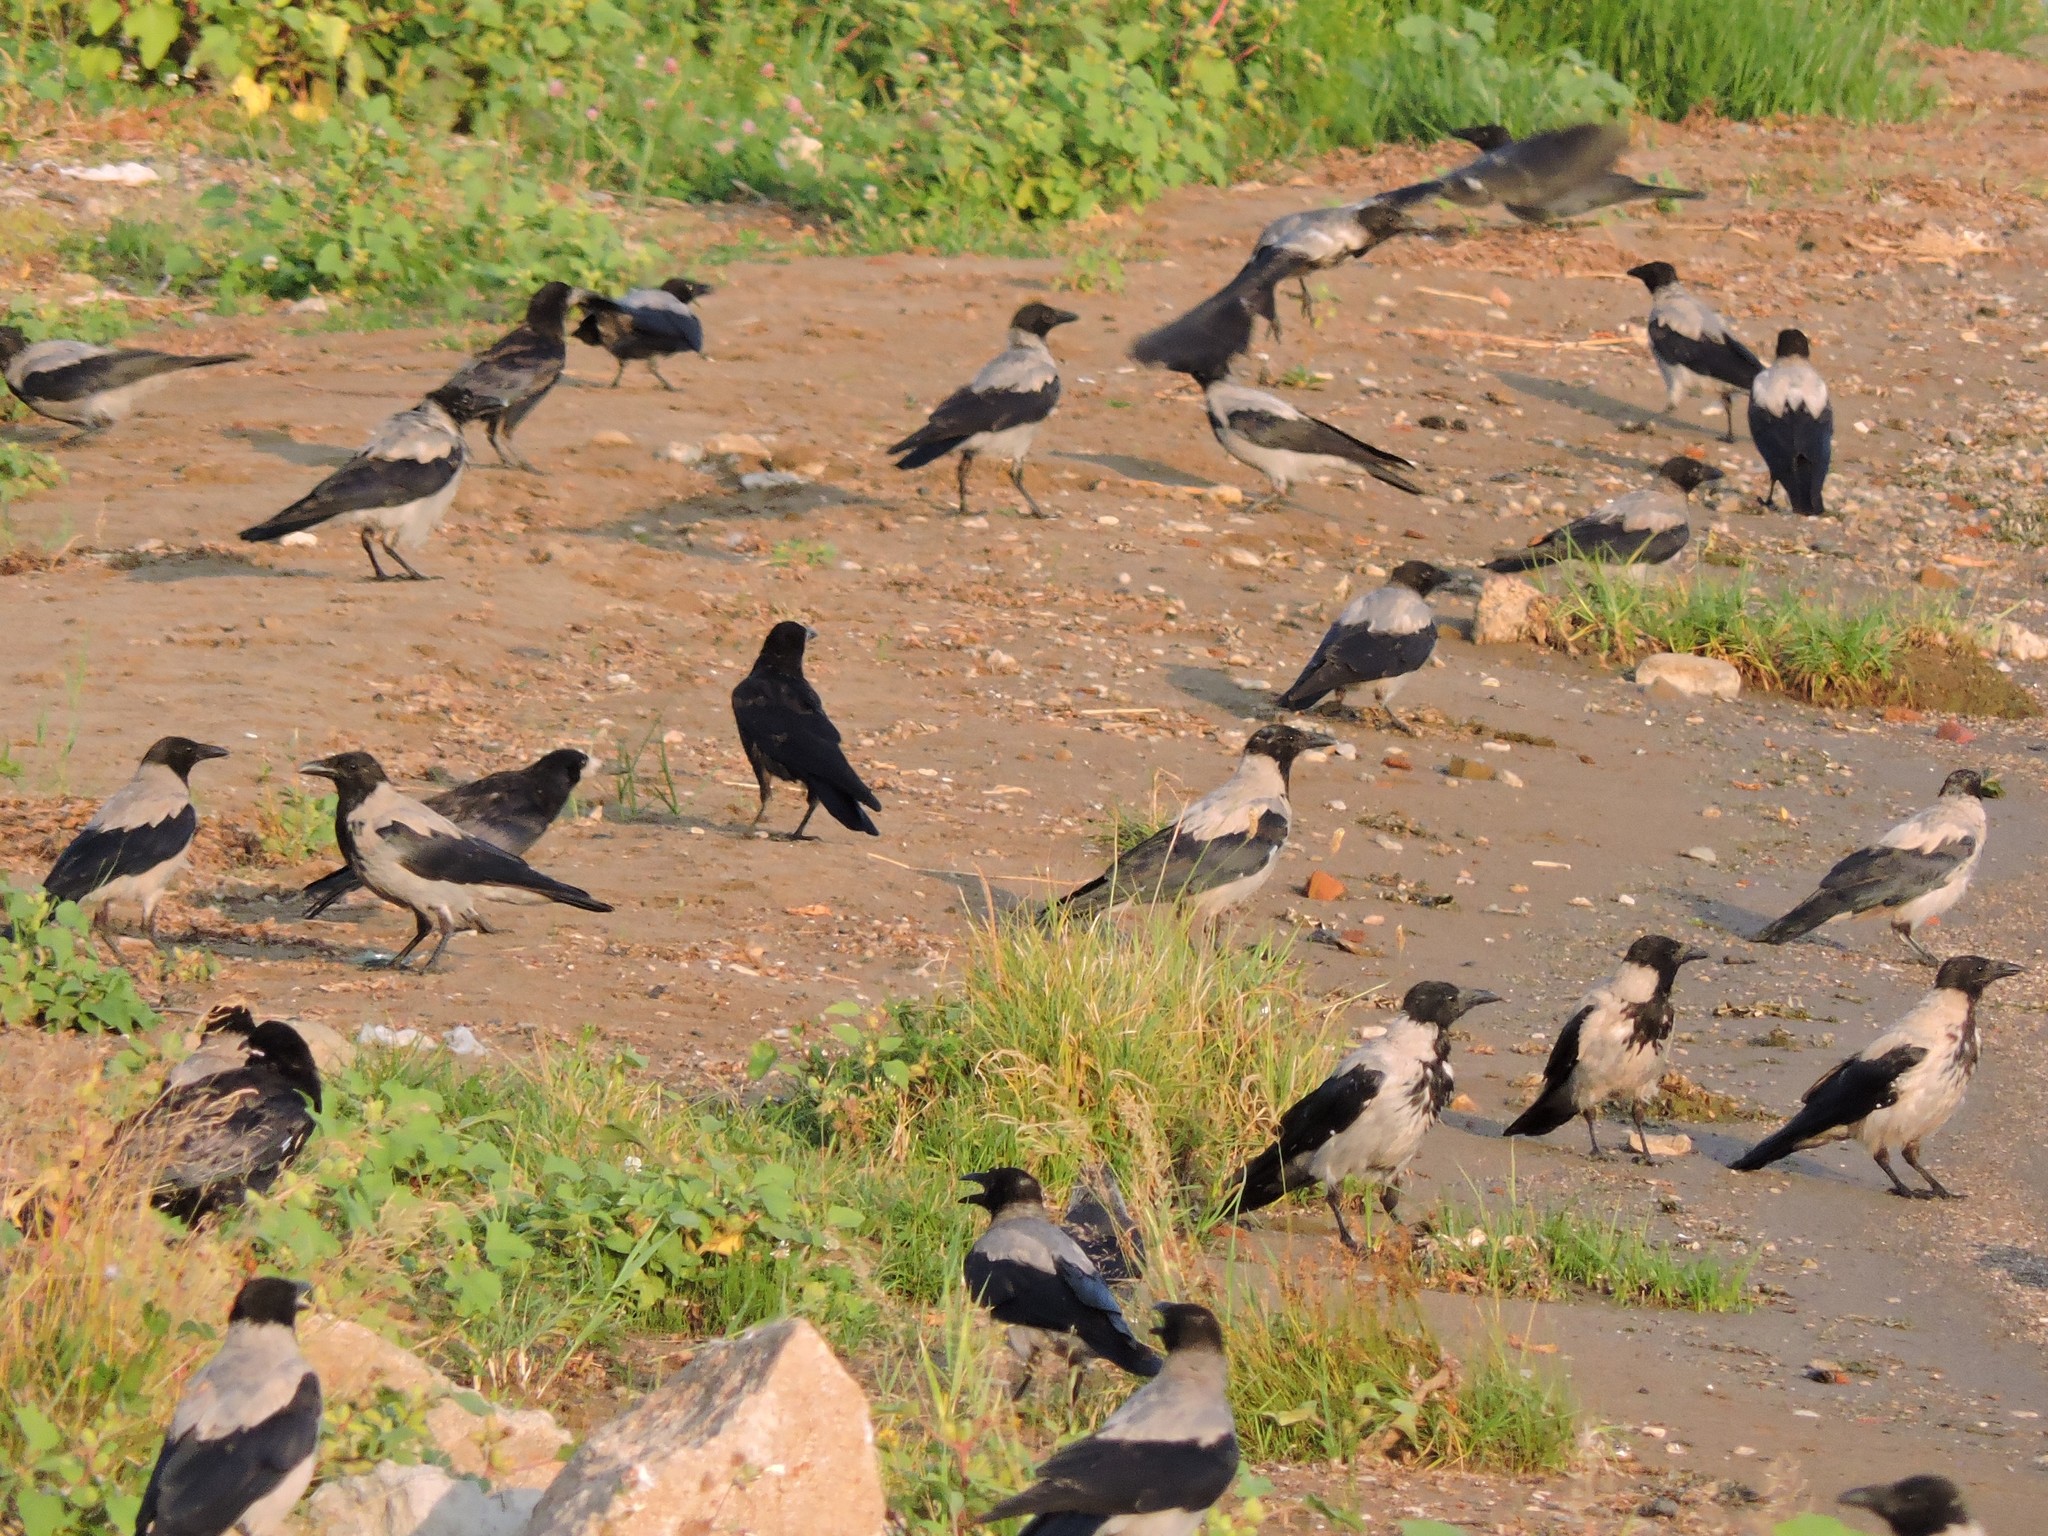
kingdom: Animalia
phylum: Chordata
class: Aves
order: Passeriformes
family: Corvidae
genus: Corvus
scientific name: Corvus cornix
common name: Hooded crow
